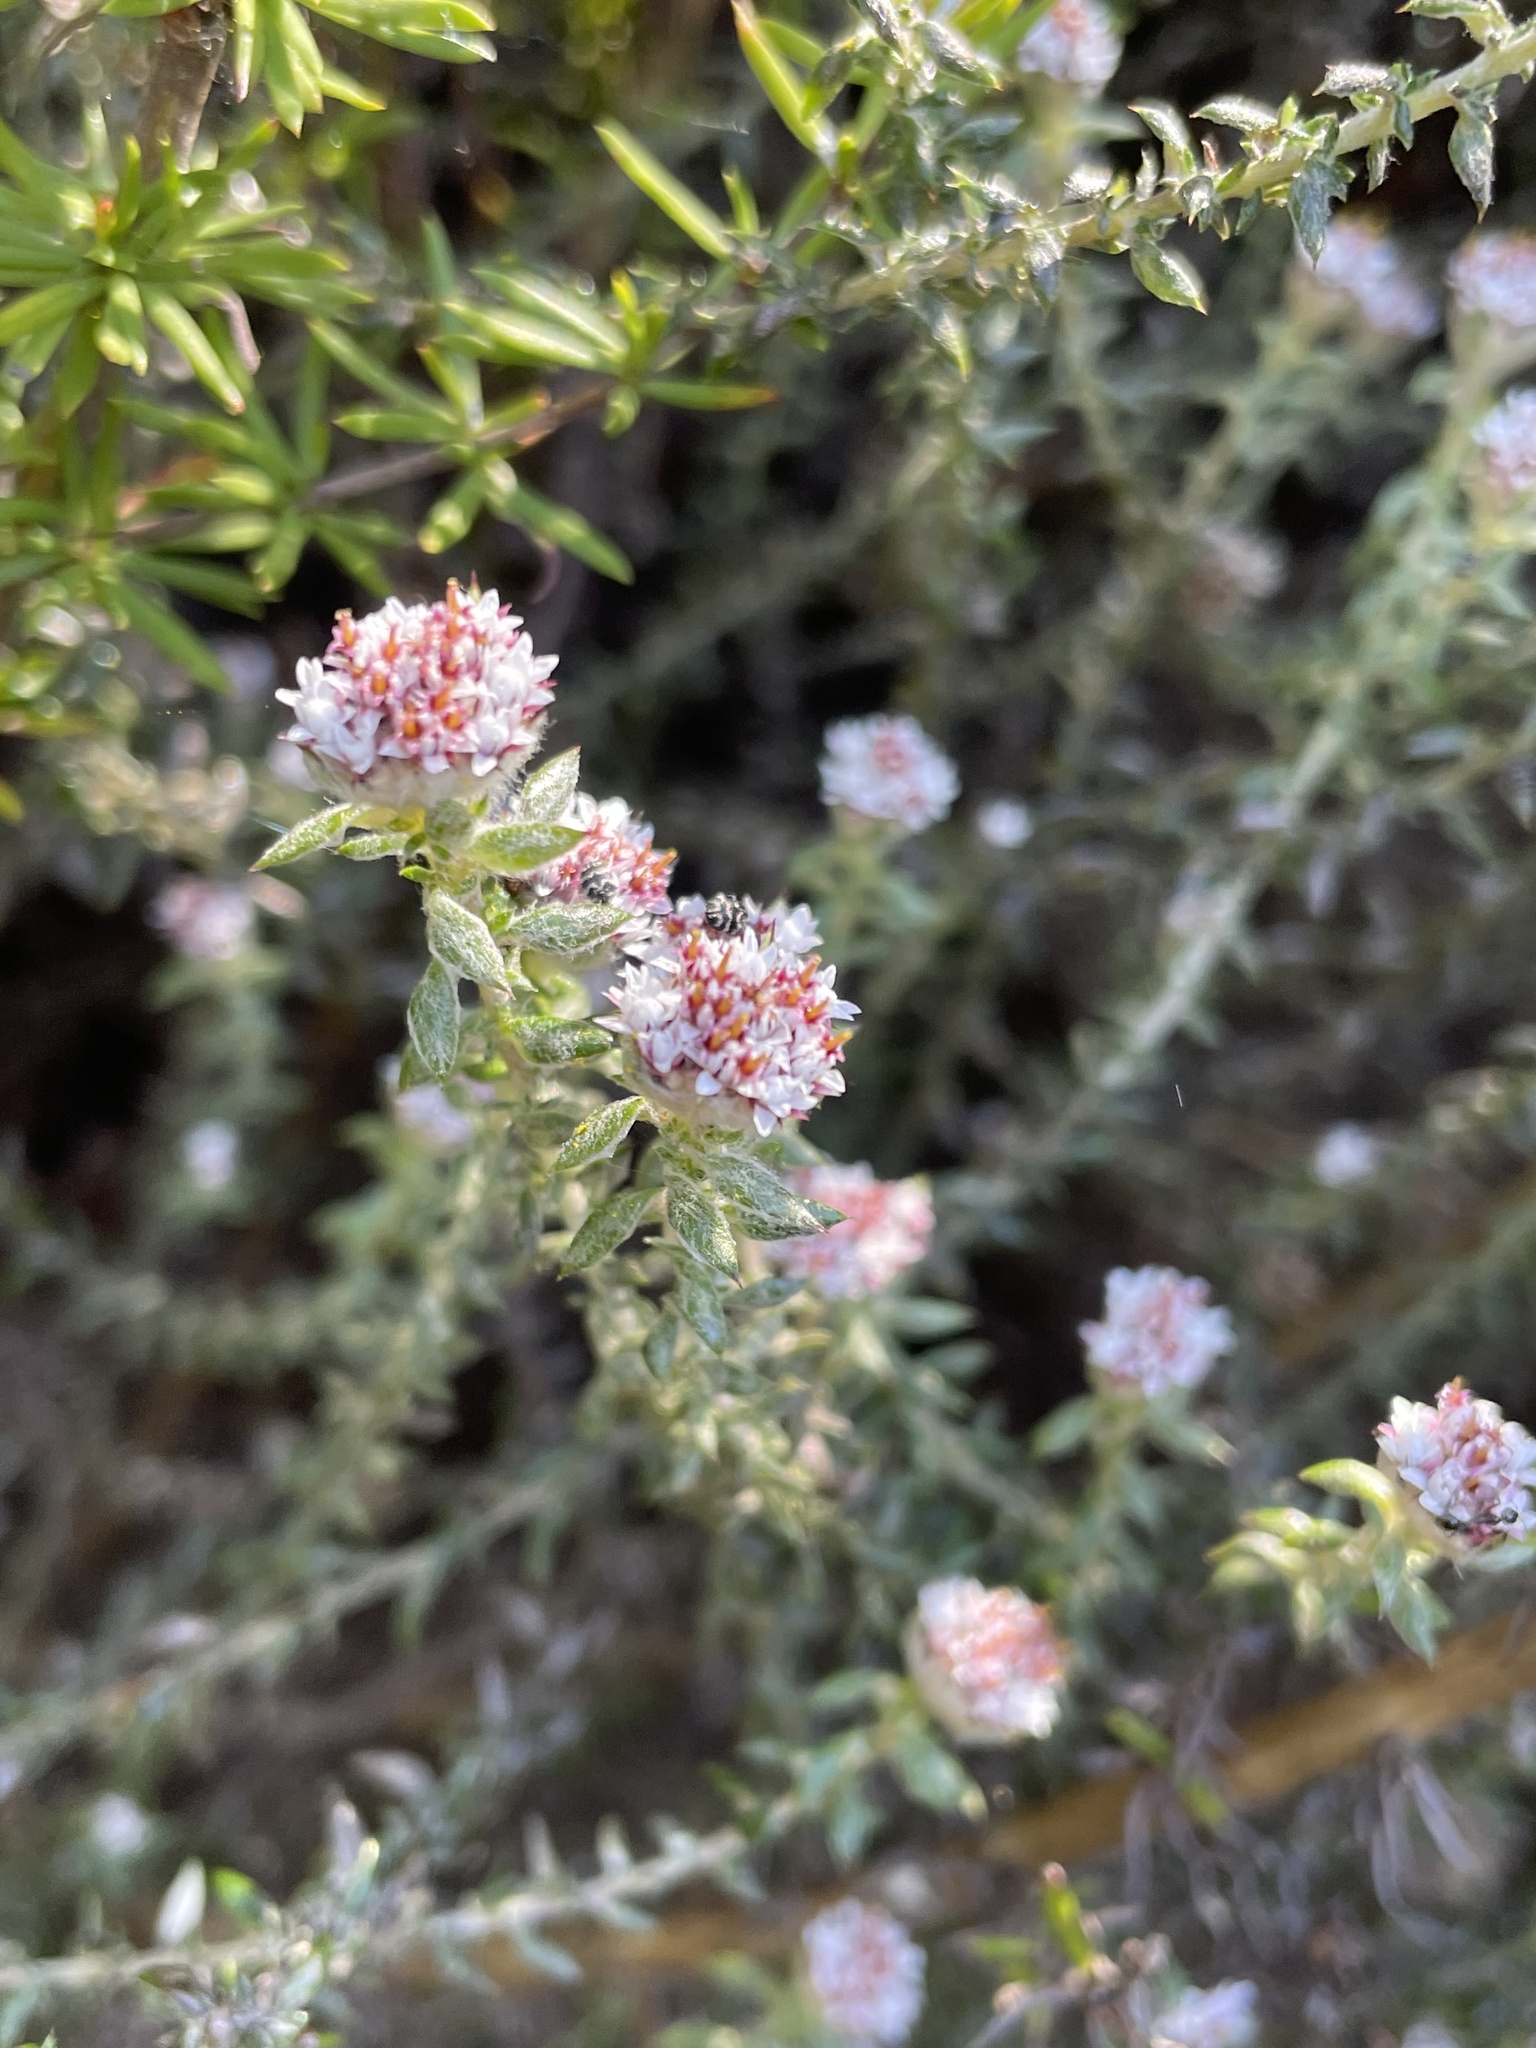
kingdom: Plantae
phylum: Tracheophyta
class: Magnoliopsida
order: Asterales
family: Asteraceae
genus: Metalasia
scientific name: Metalasia divergens
